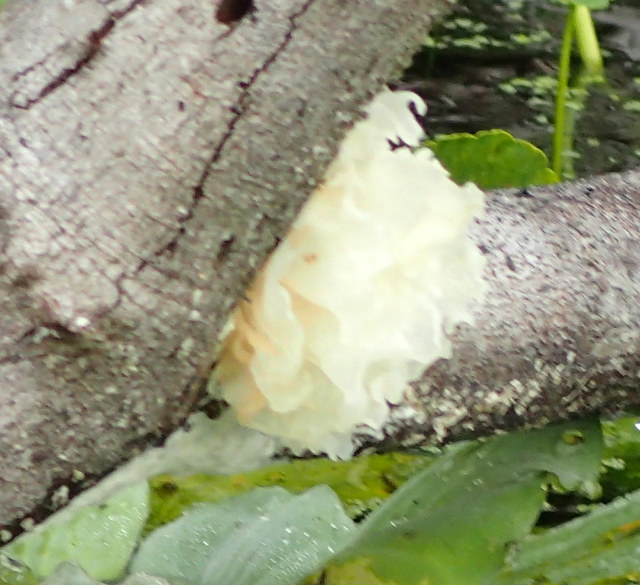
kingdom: Fungi
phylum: Basidiomycota
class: Tremellomycetes
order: Tremellales
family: Tremellaceae
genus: Tremella
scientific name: Tremella fuciformis
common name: Snow fungus
